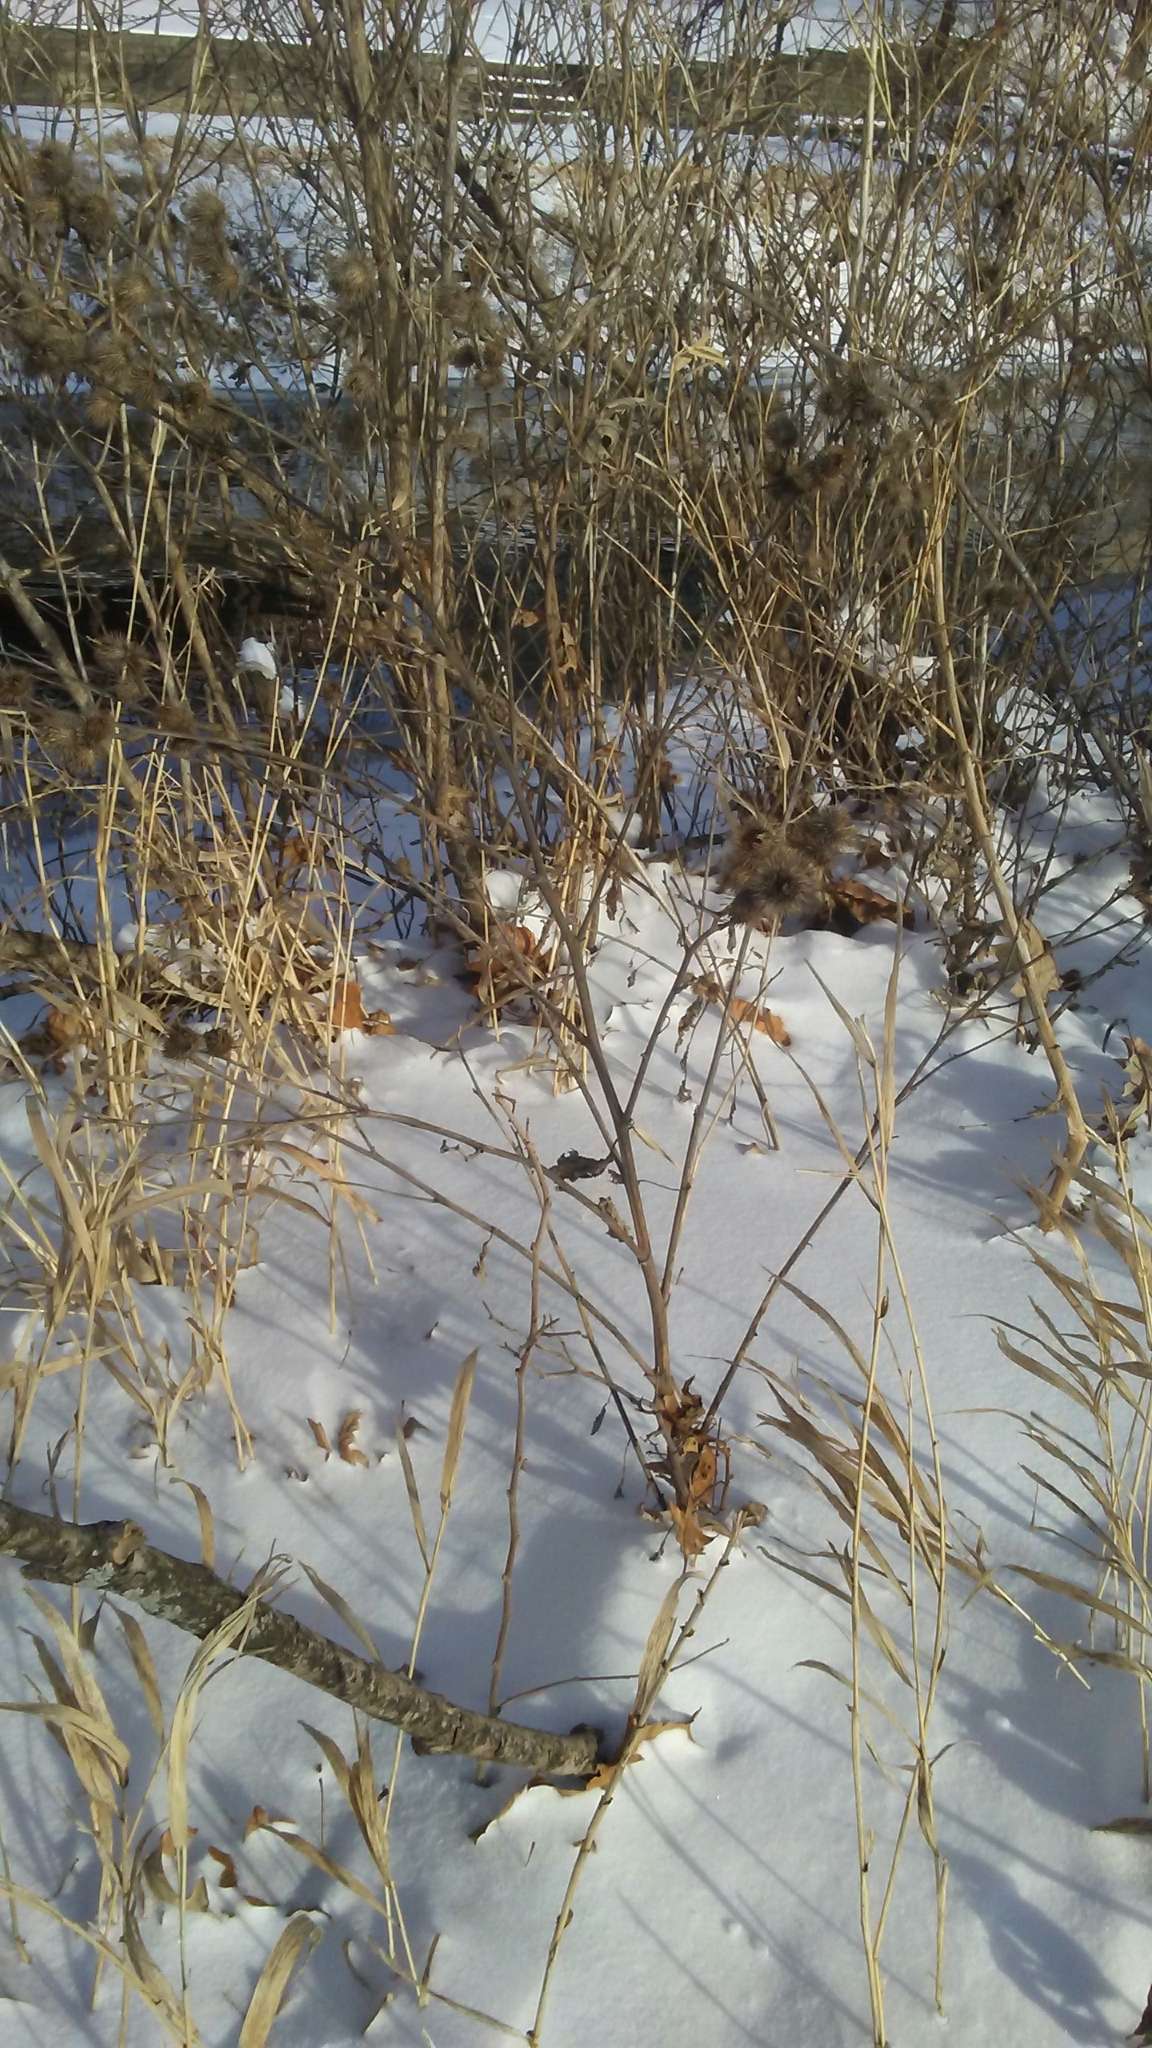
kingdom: Plantae
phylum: Tracheophyta
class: Magnoliopsida
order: Asterales
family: Asteraceae
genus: Arctium
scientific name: Arctium minus
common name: Lesser burdock
